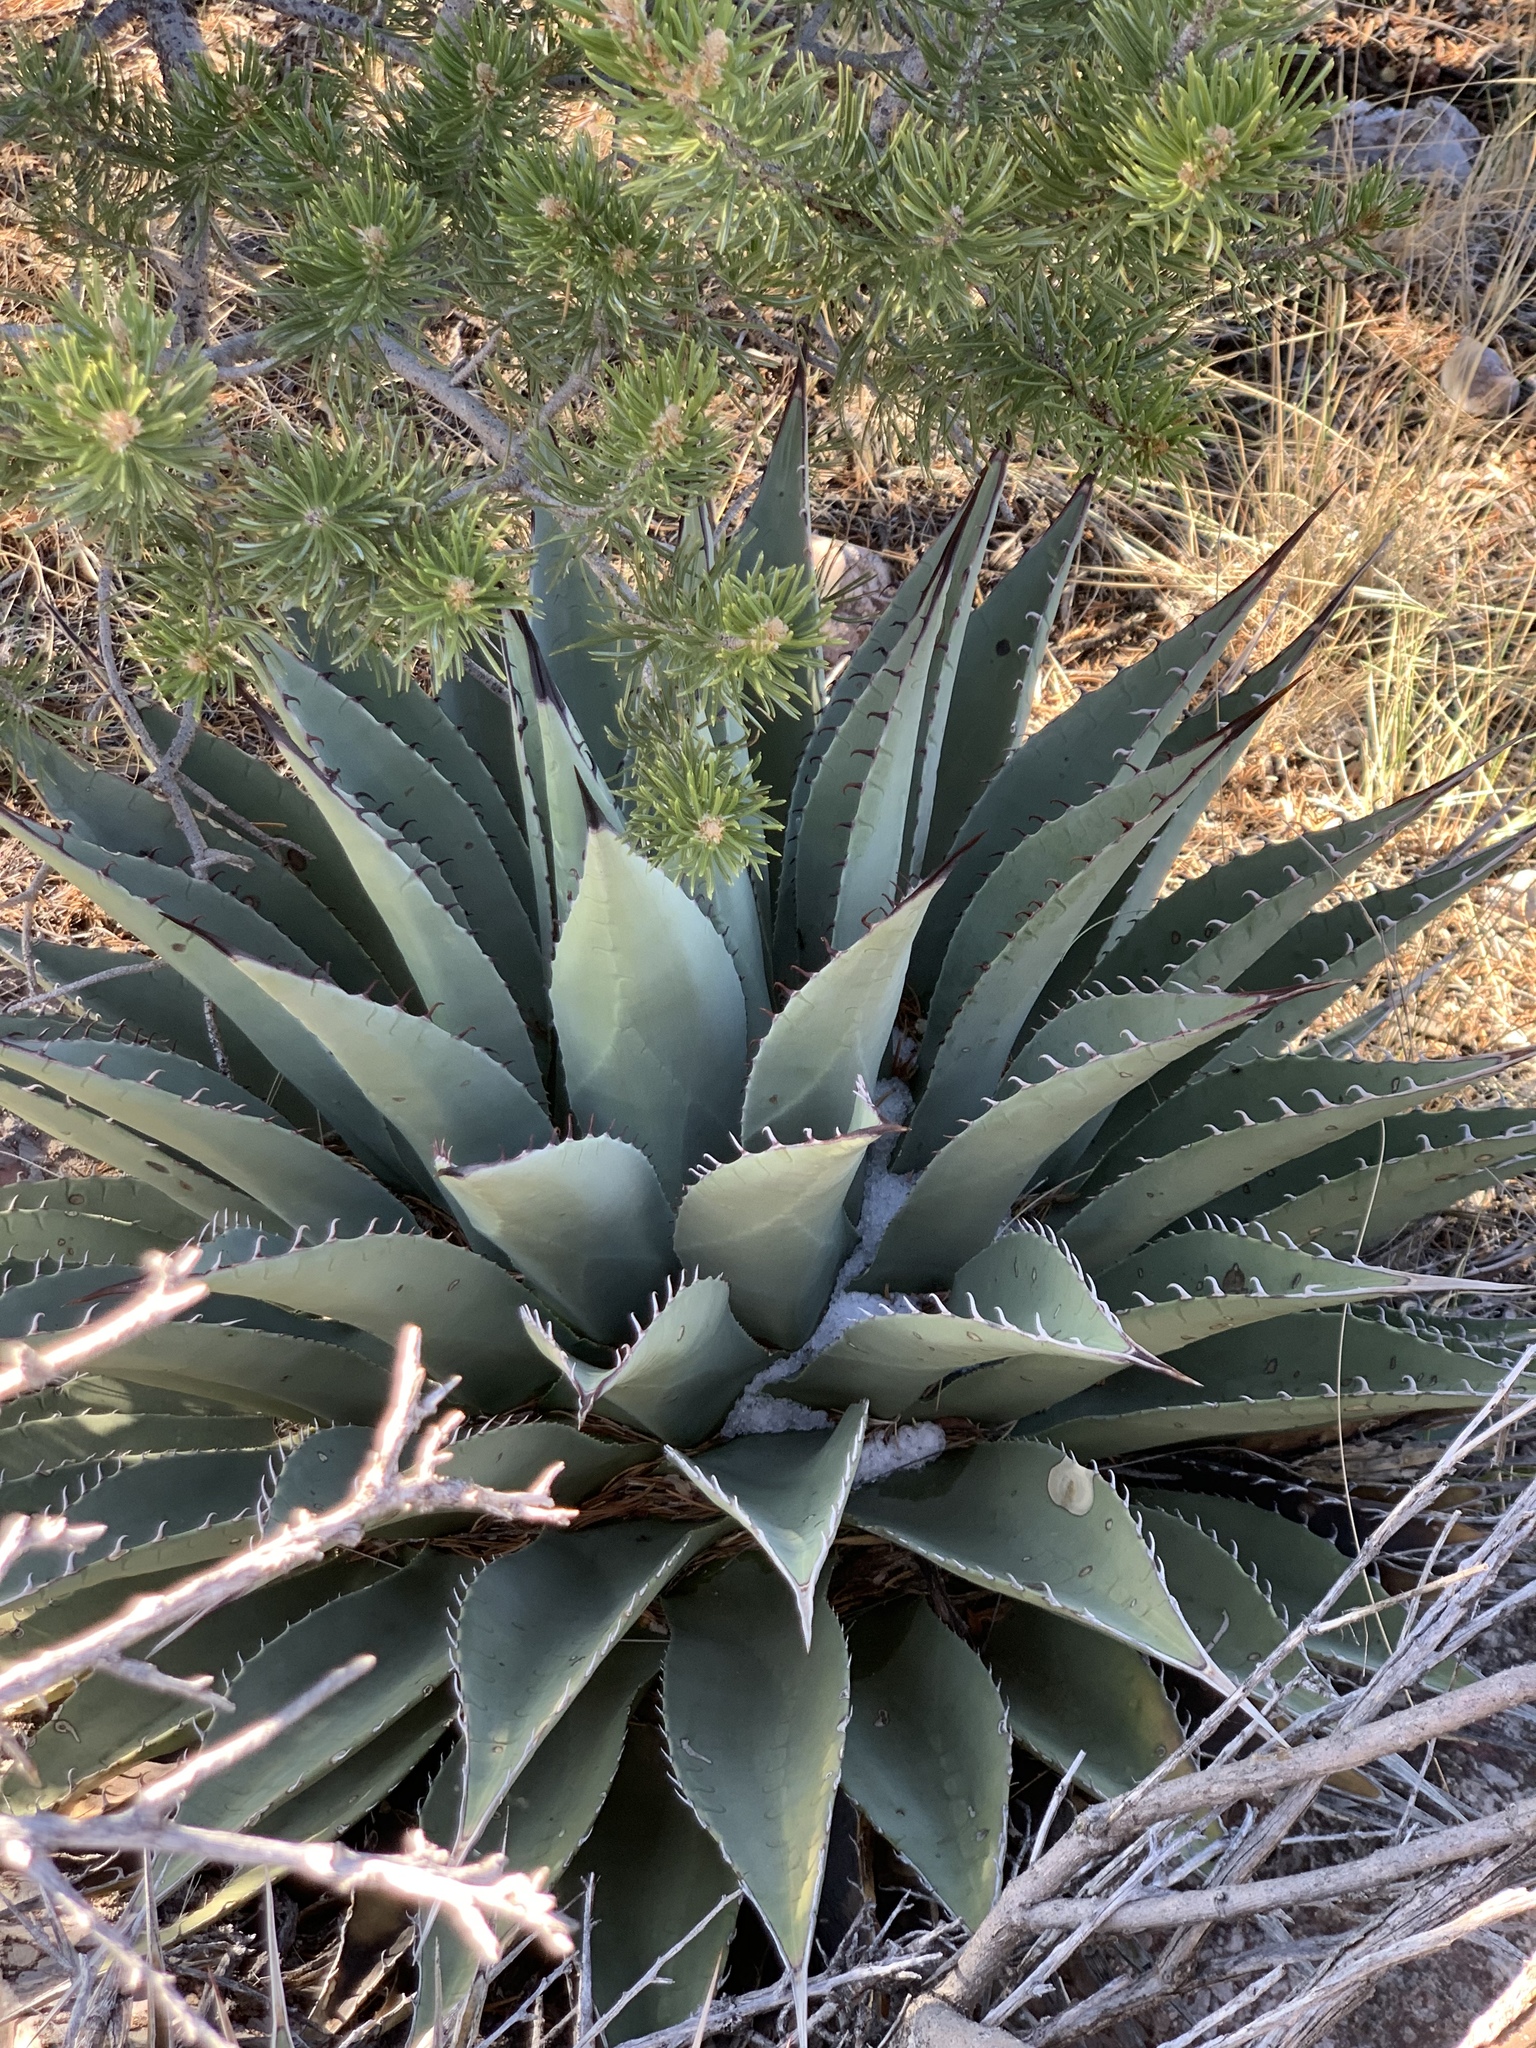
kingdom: Plantae
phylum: Tracheophyta
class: Liliopsida
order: Asparagales
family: Asparagaceae
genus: Agave
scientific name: Agave parryi
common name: Parry's agave
